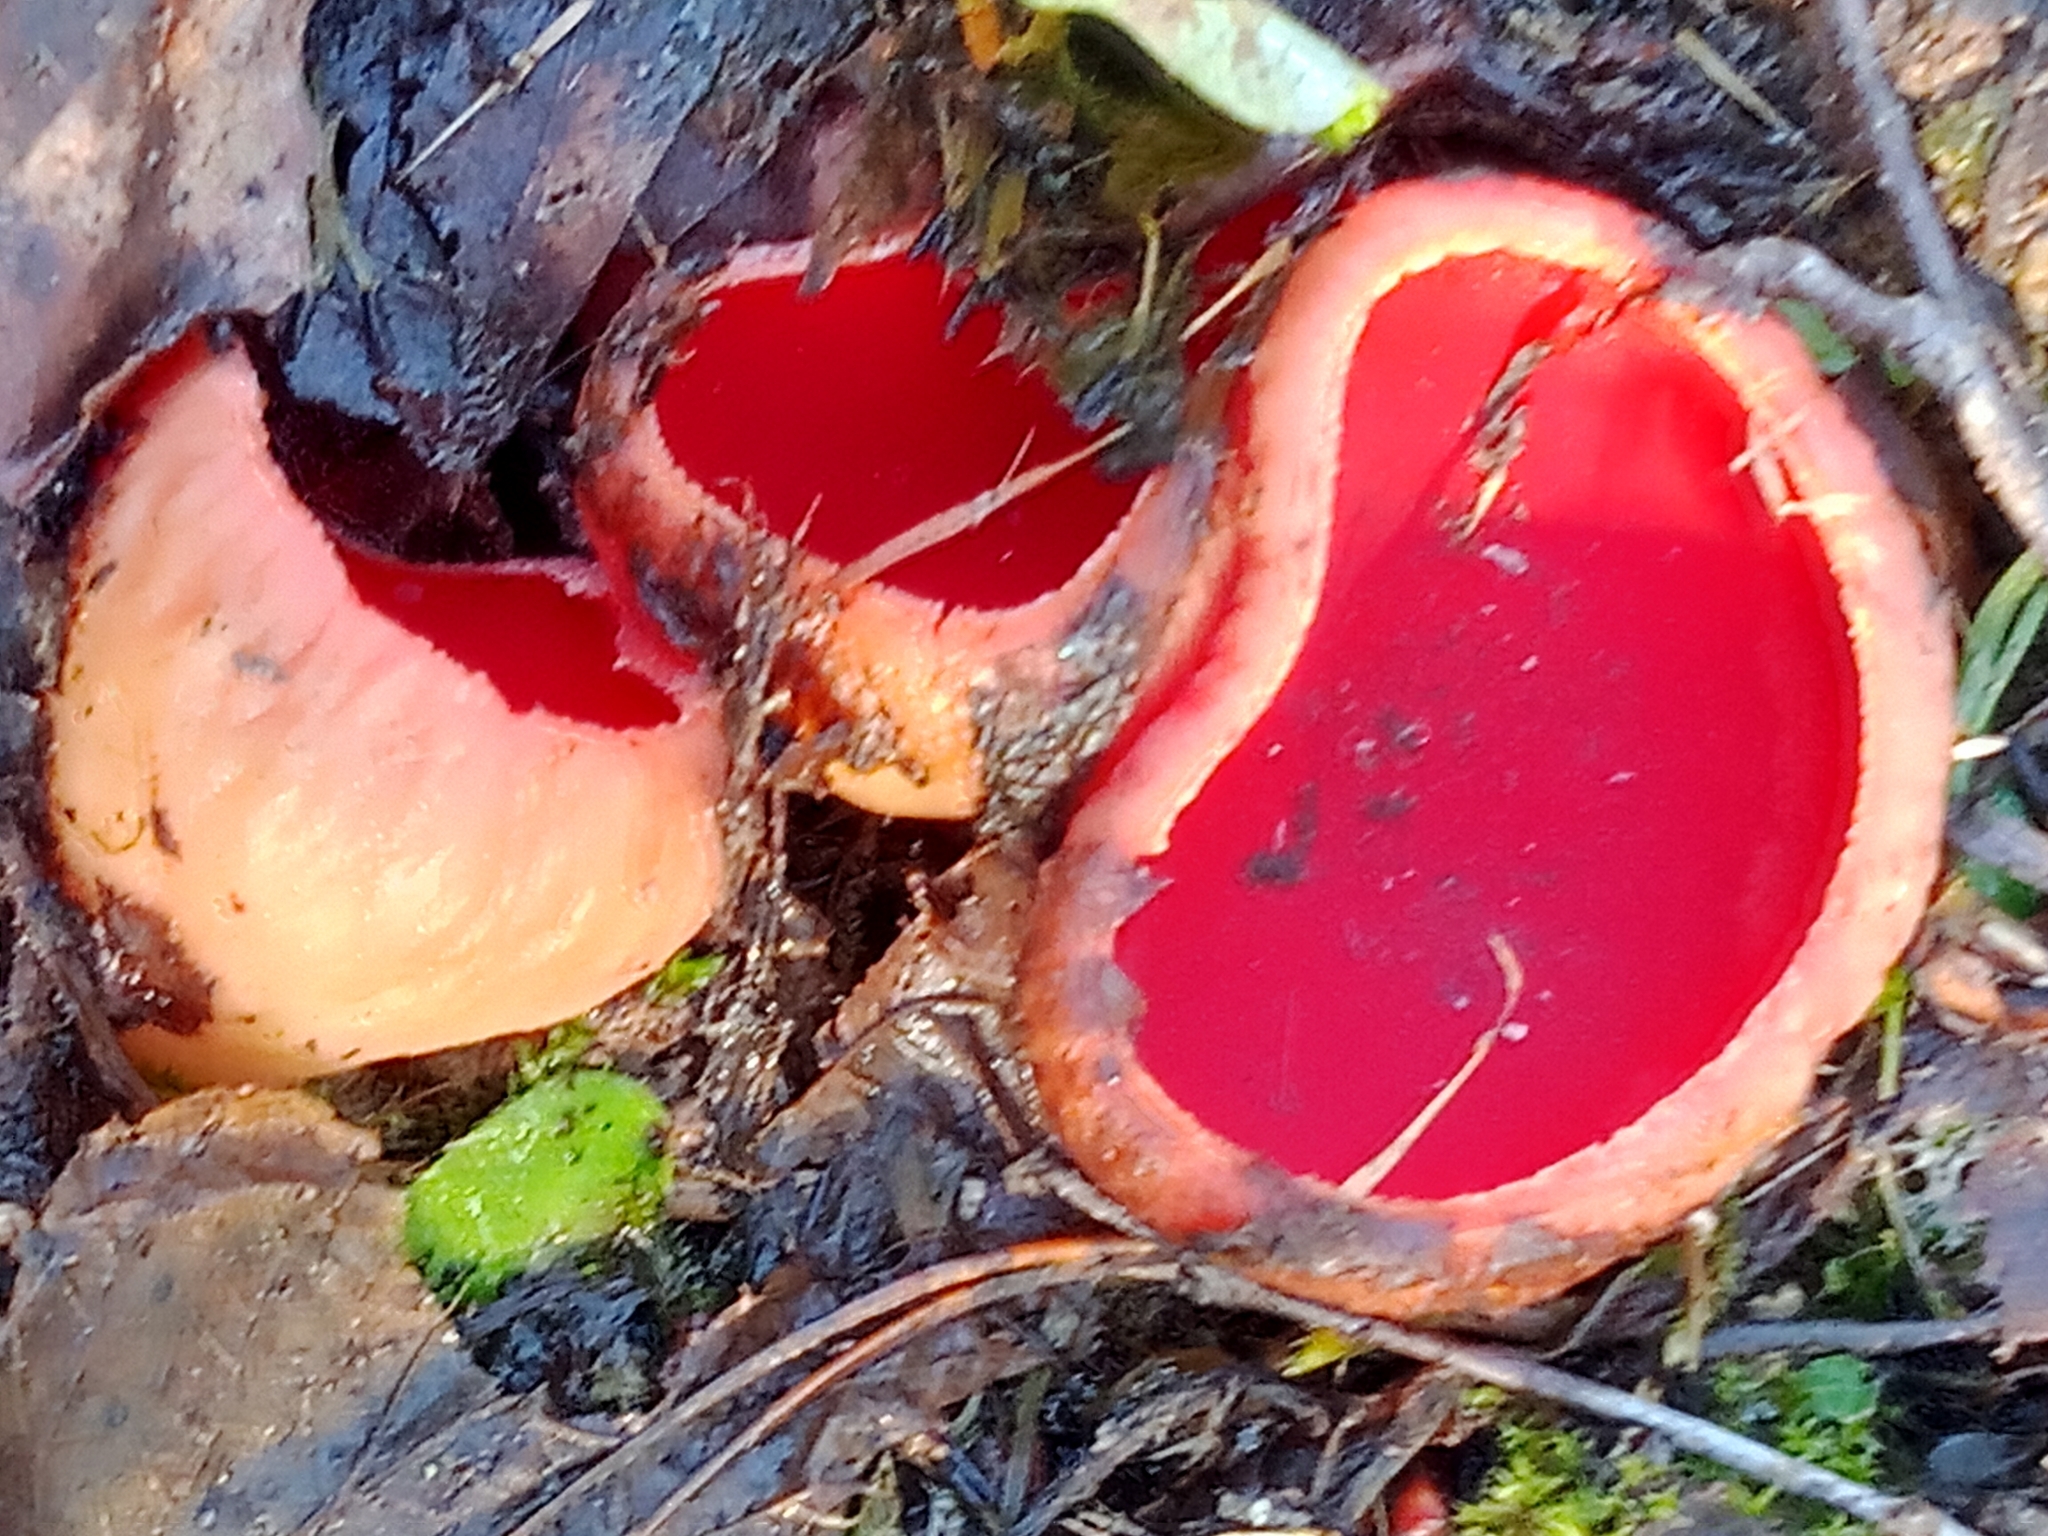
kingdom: Fungi
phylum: Ascomycota
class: Pezizomycetes
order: Pezizales
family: Sarcoscyphaceae
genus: Sarcoscypha
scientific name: Sarcoscypha austriaca
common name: Scarlet elfcup
